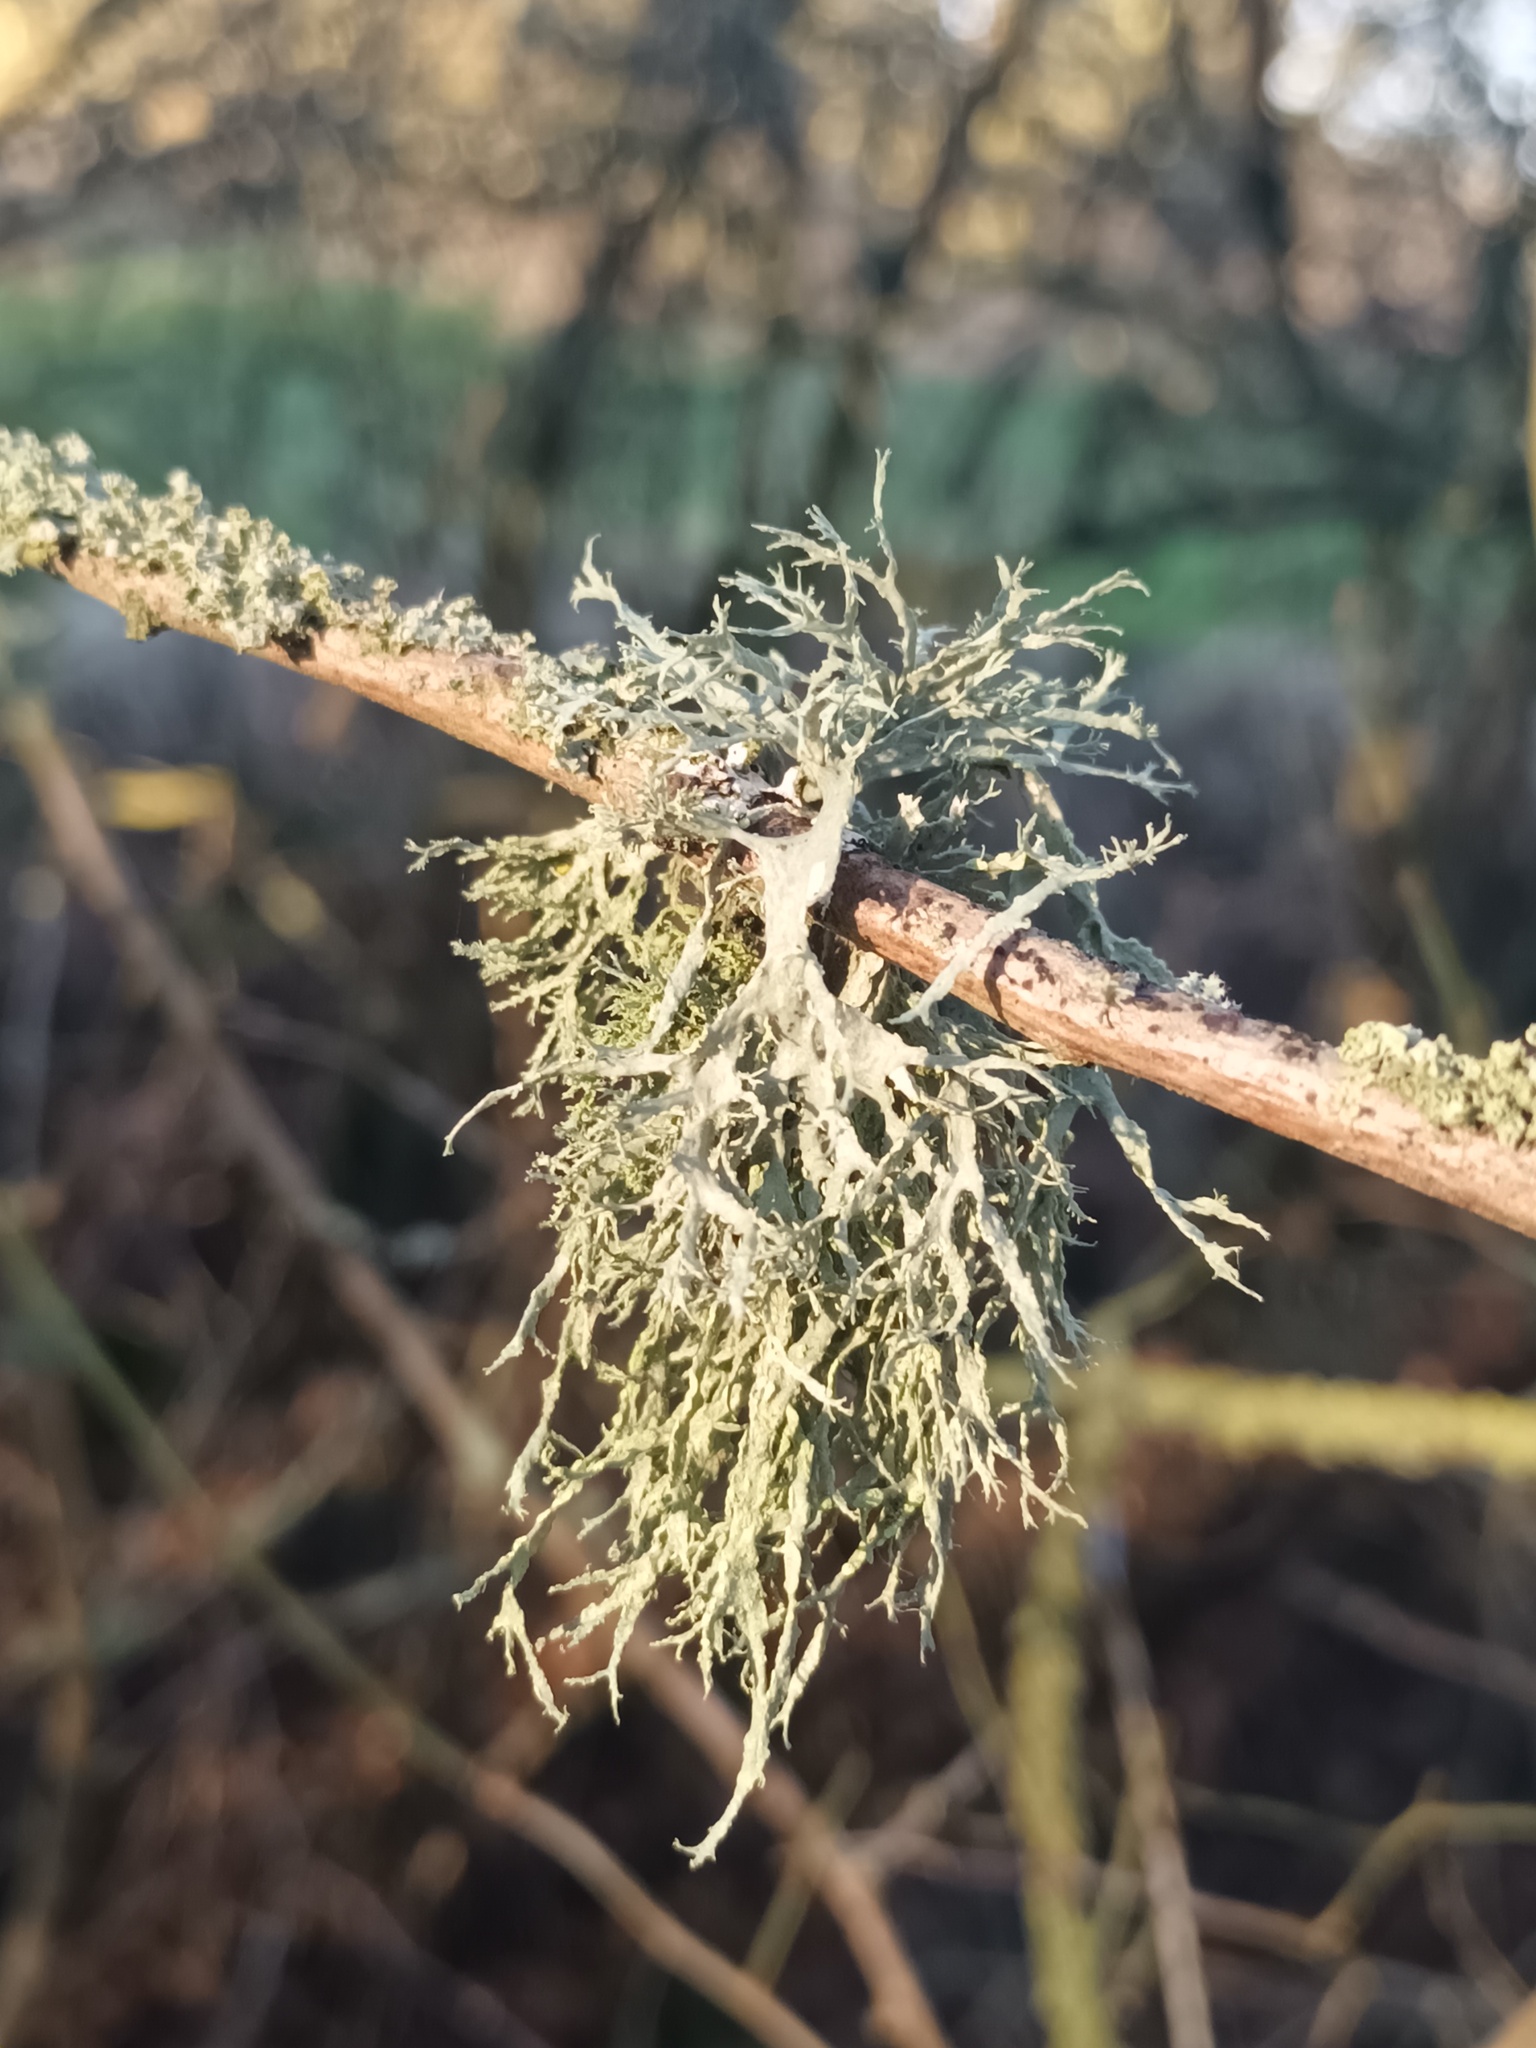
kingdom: Fungi
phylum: Ascomycota
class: Lecanoromycetes
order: Lecanorales
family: Ramalinaceae
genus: Ramalina
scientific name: Ramalina farinacea
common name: Farinose cartilage lichen
